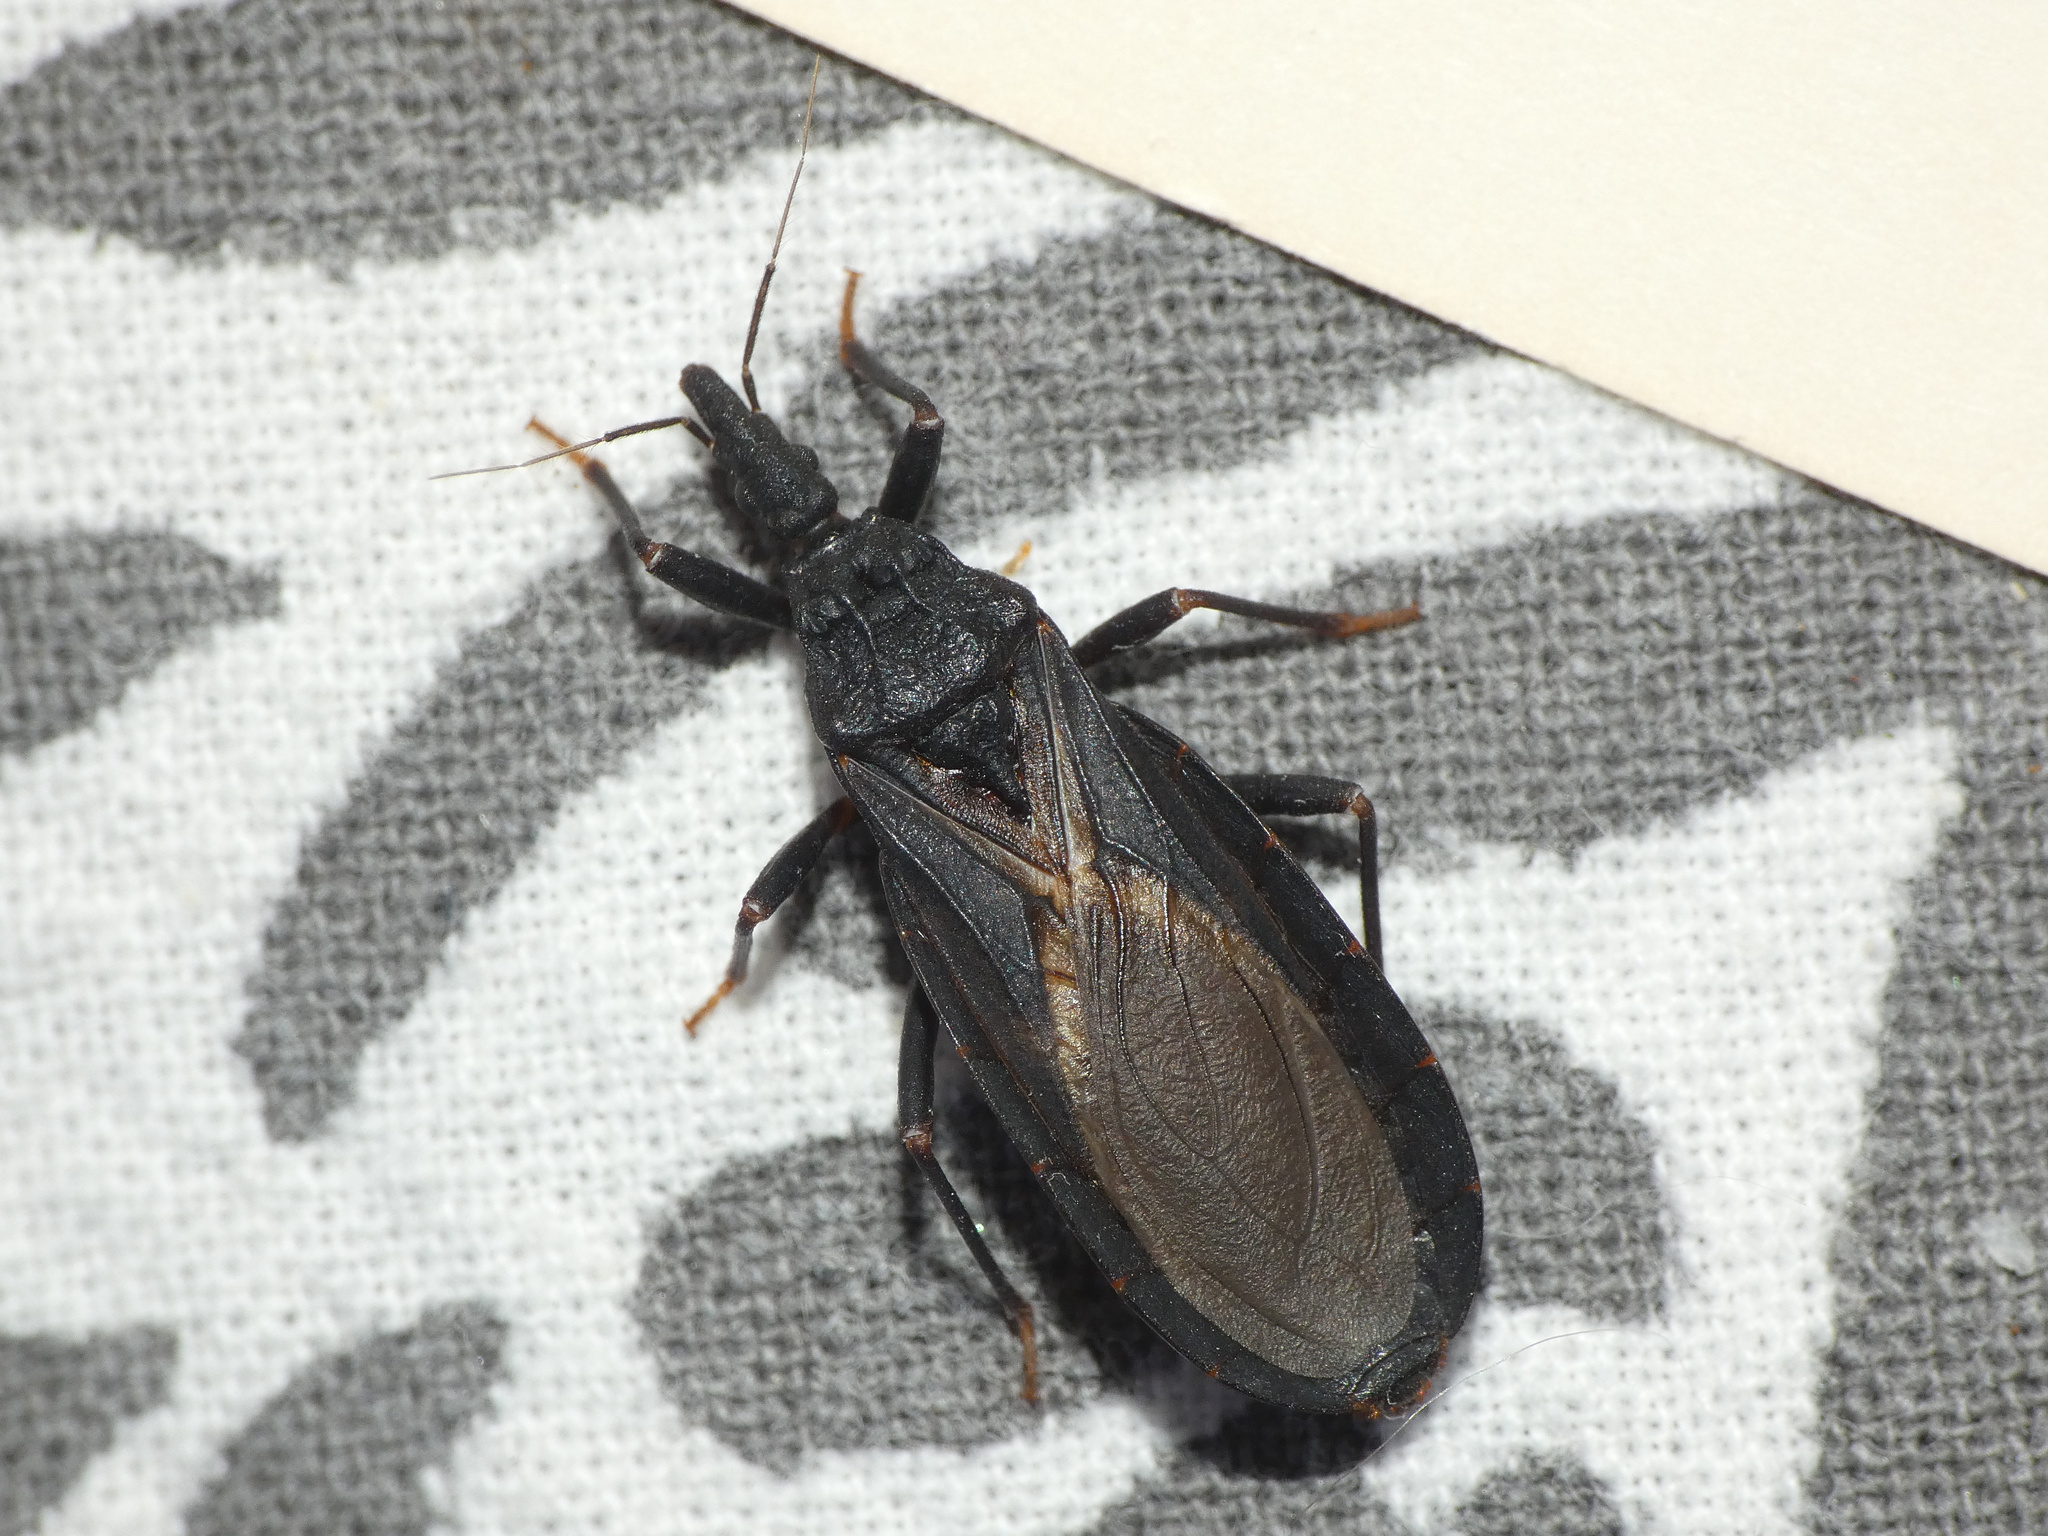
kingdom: Animalia
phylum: Arthropoda
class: Insecta
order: Hemiptera
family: Reduviidae
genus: Triatoma
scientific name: Triatoma protracta
